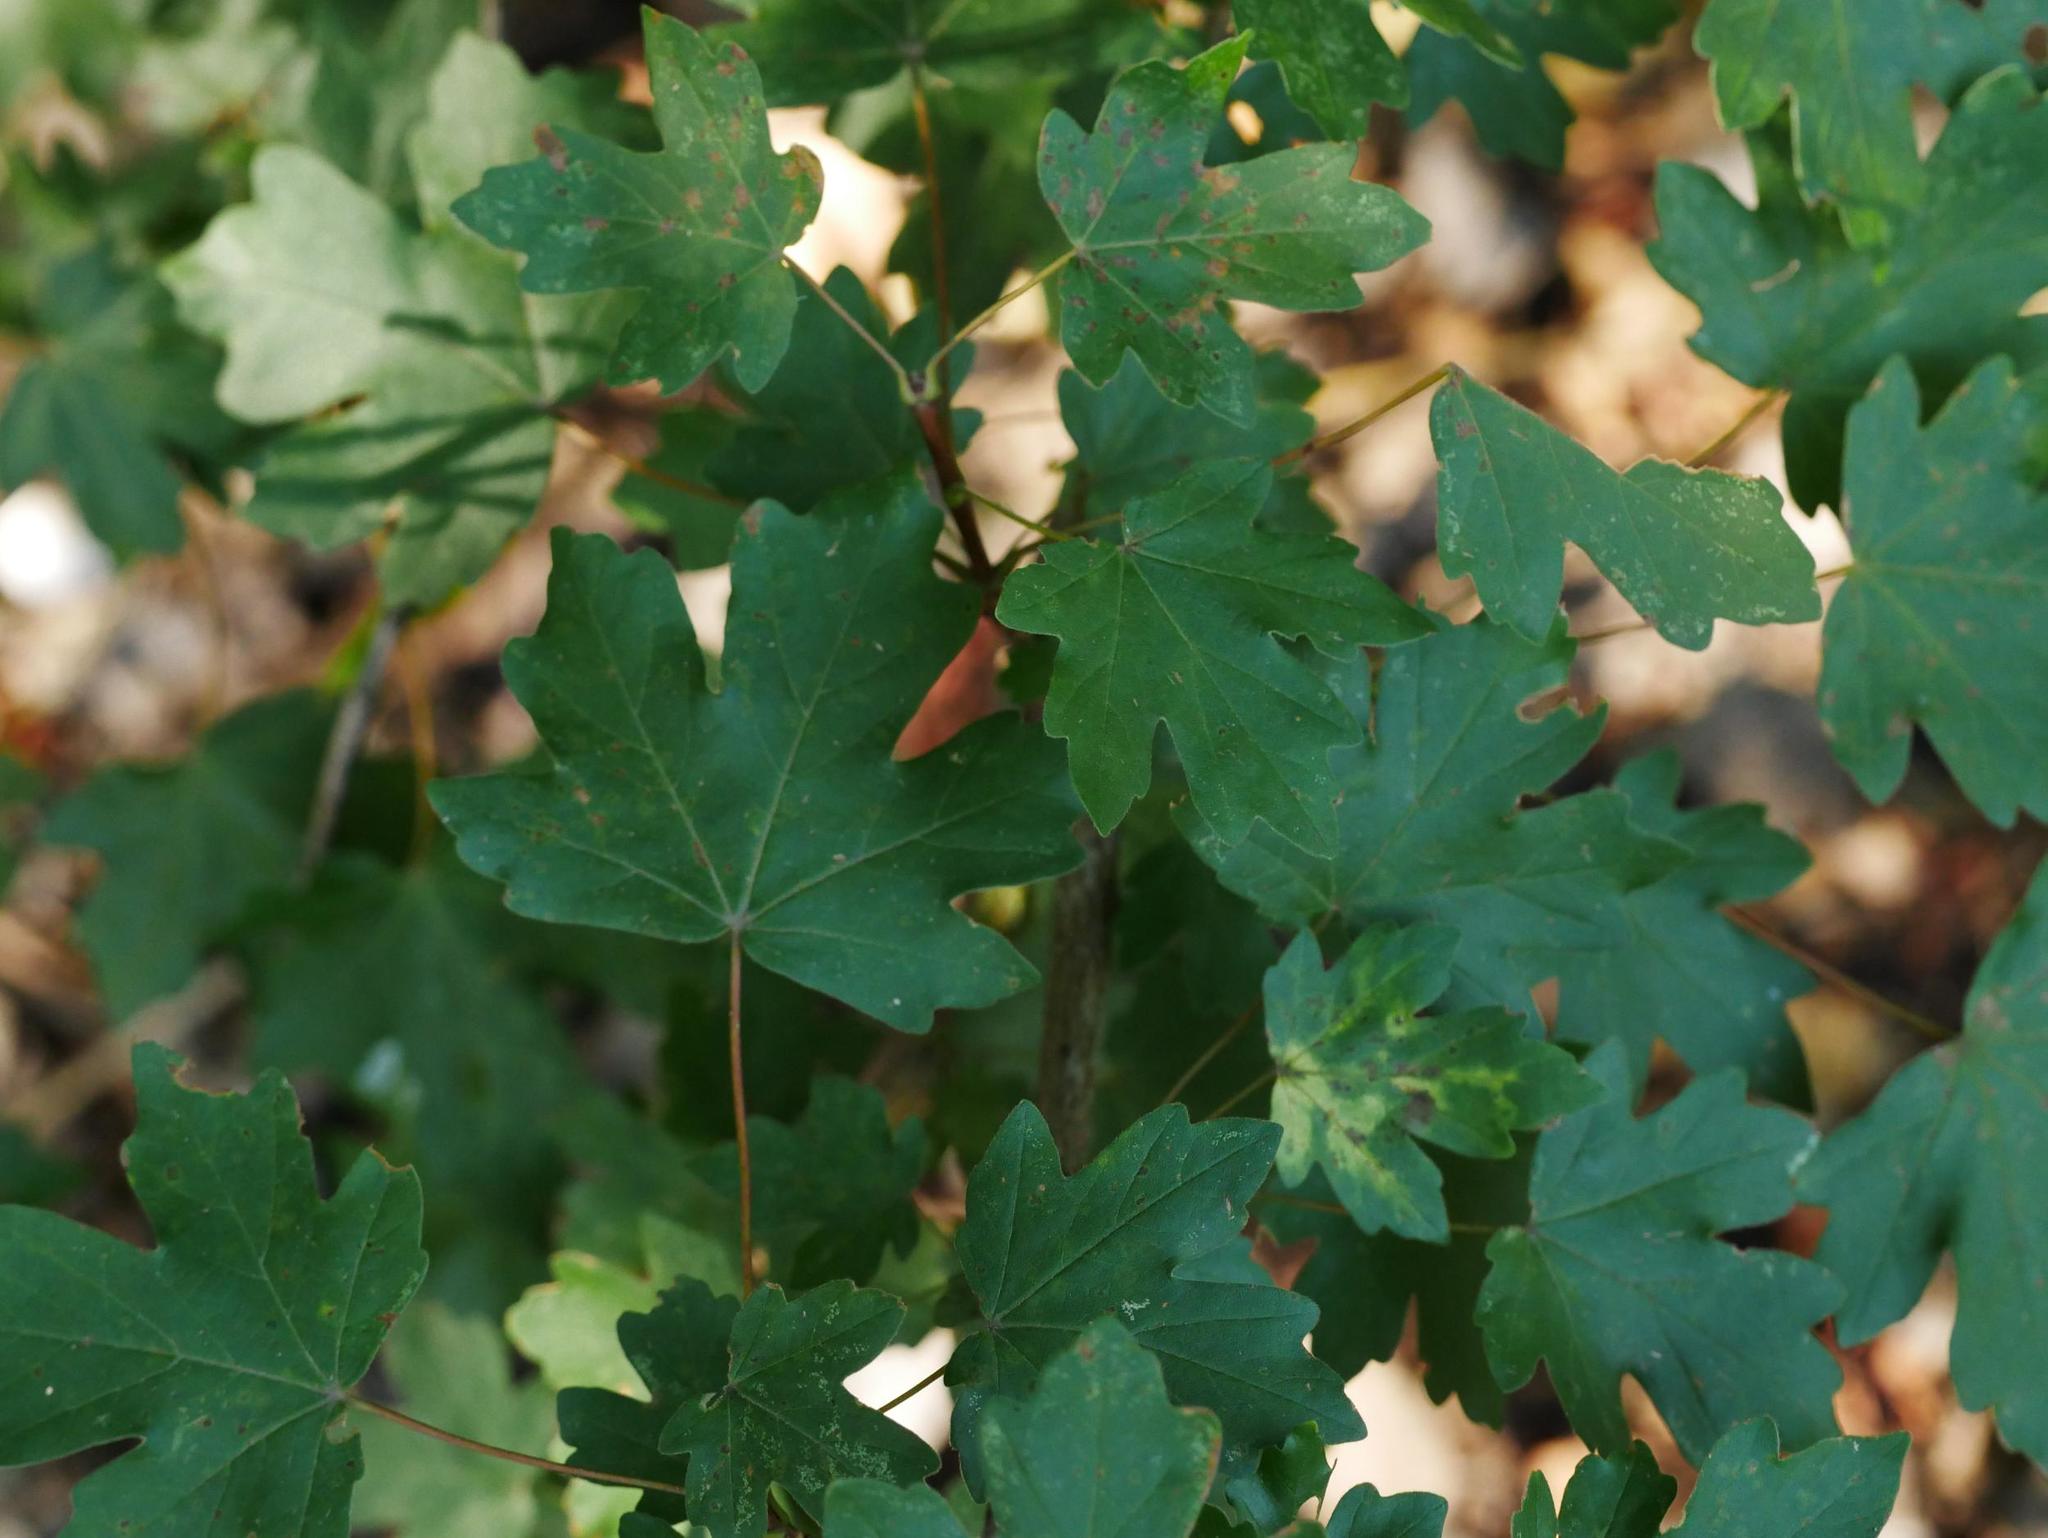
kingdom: Plantae
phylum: Tracheophyta
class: Magnoliopsida
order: Sapindales
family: Sapindaceae
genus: Acer
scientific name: Acer campestre
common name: Field maple
